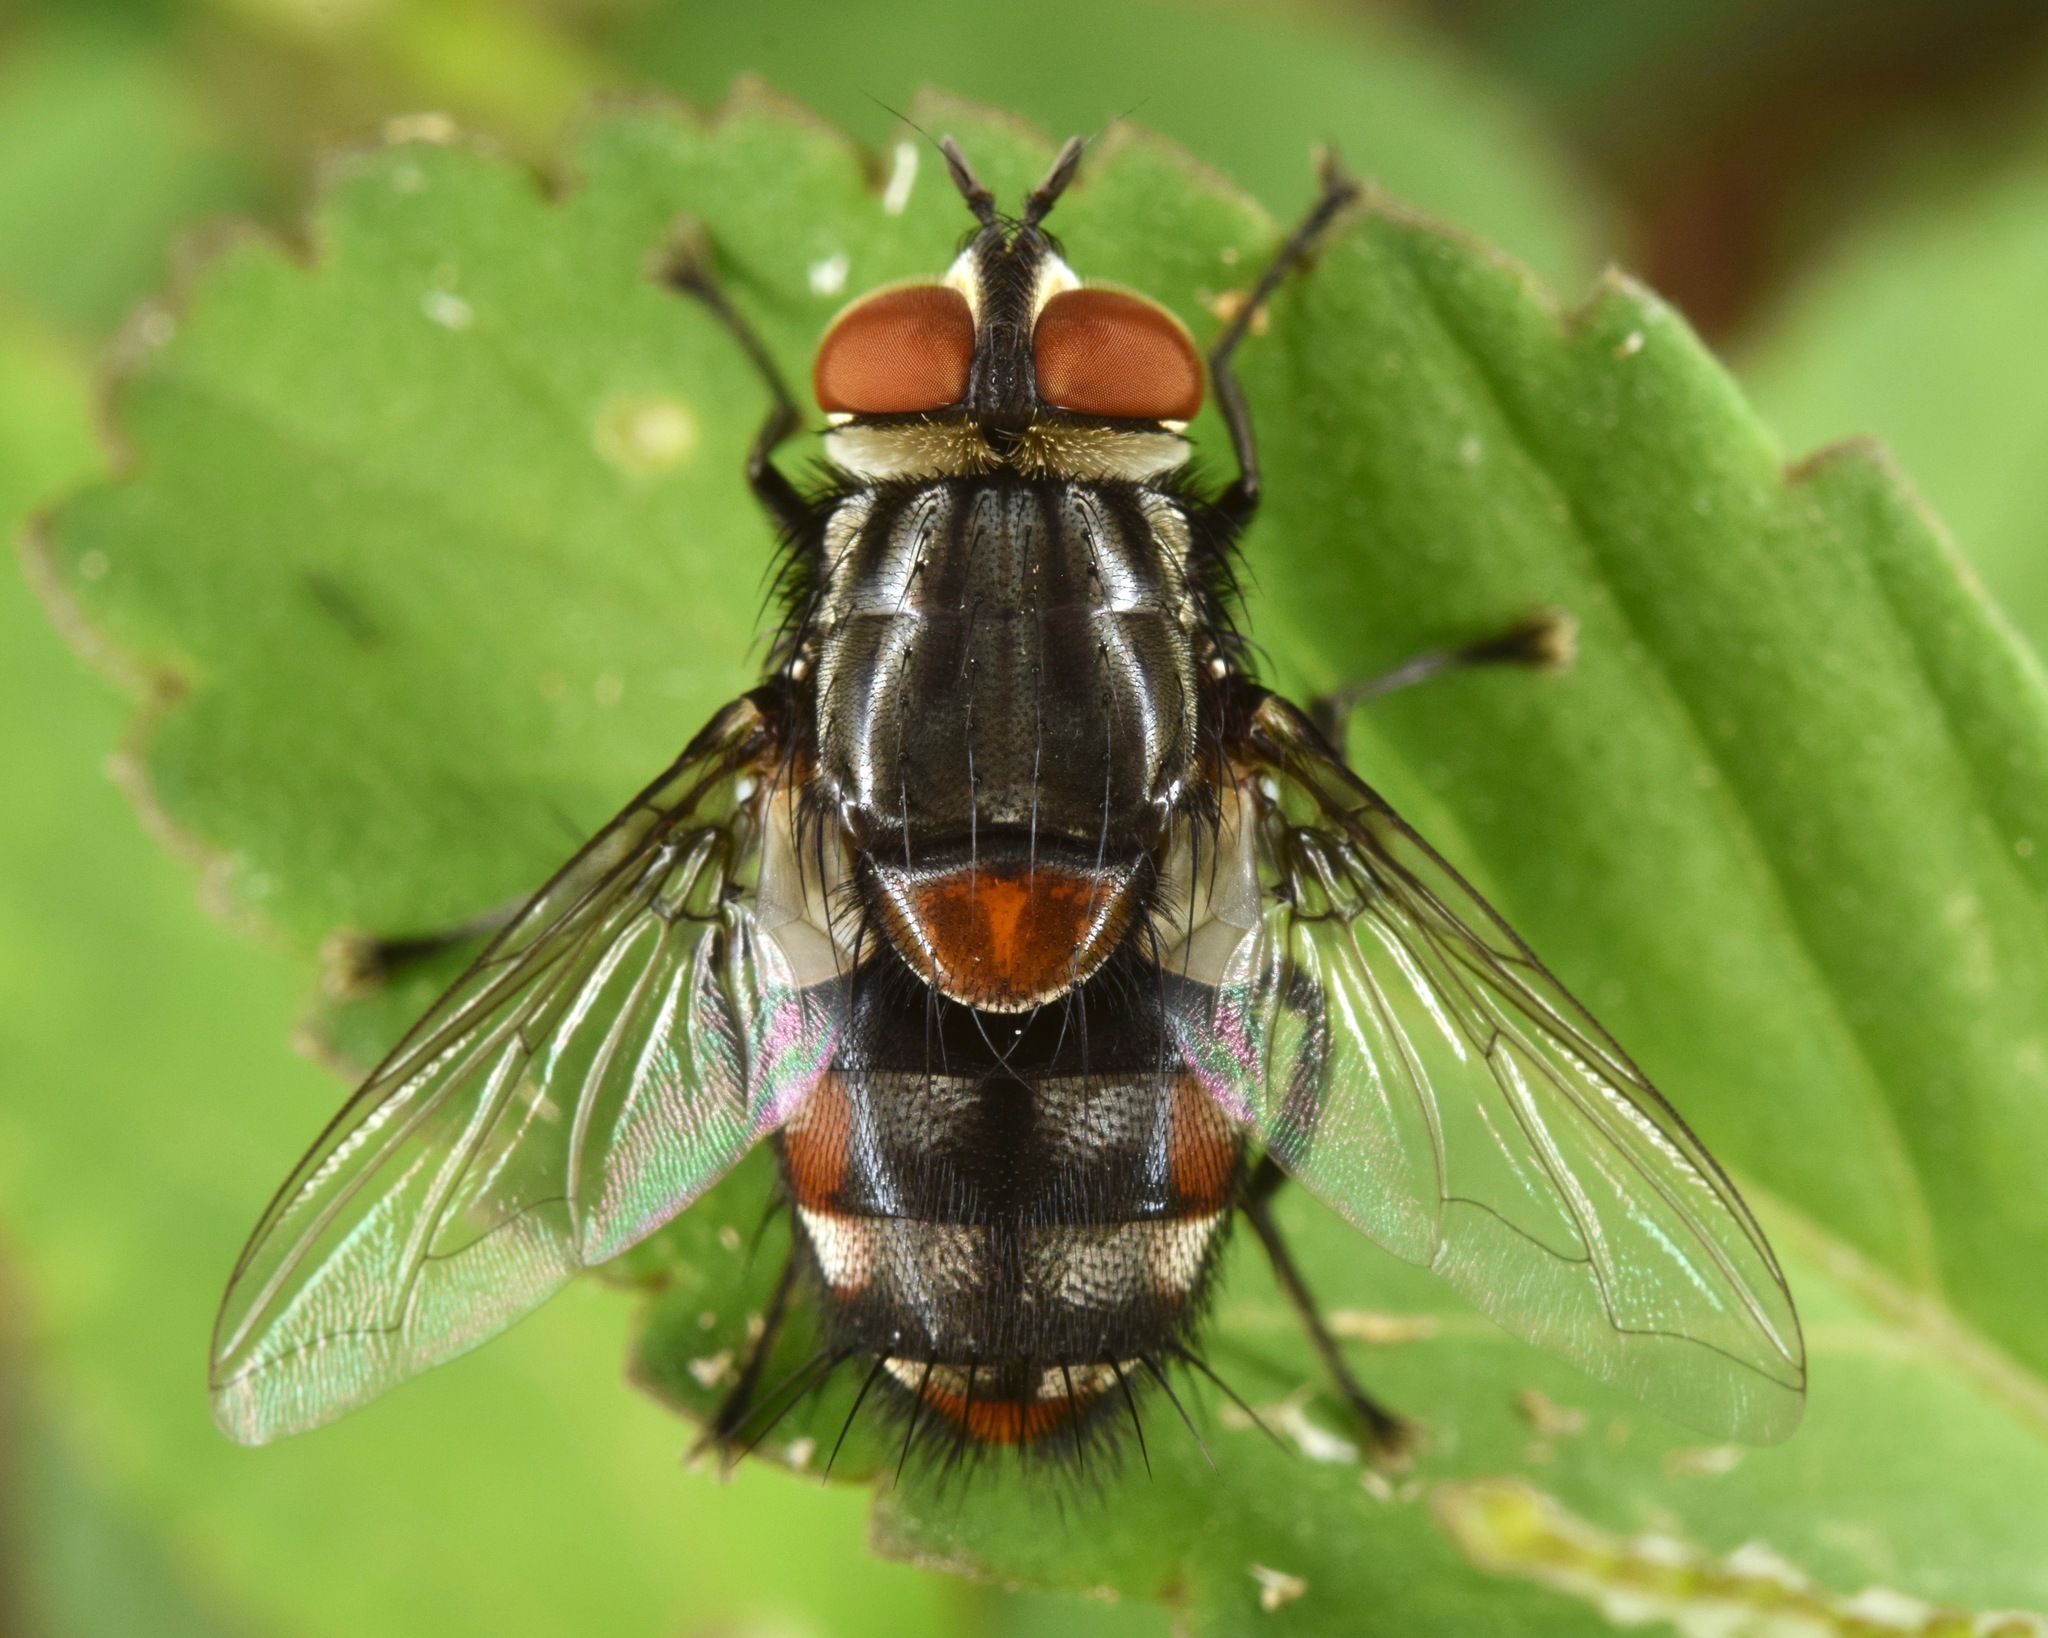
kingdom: Animalia
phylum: Arthropoda
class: Insecta
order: Diptera
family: Tachinidae
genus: Winthemia
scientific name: Winthemia
